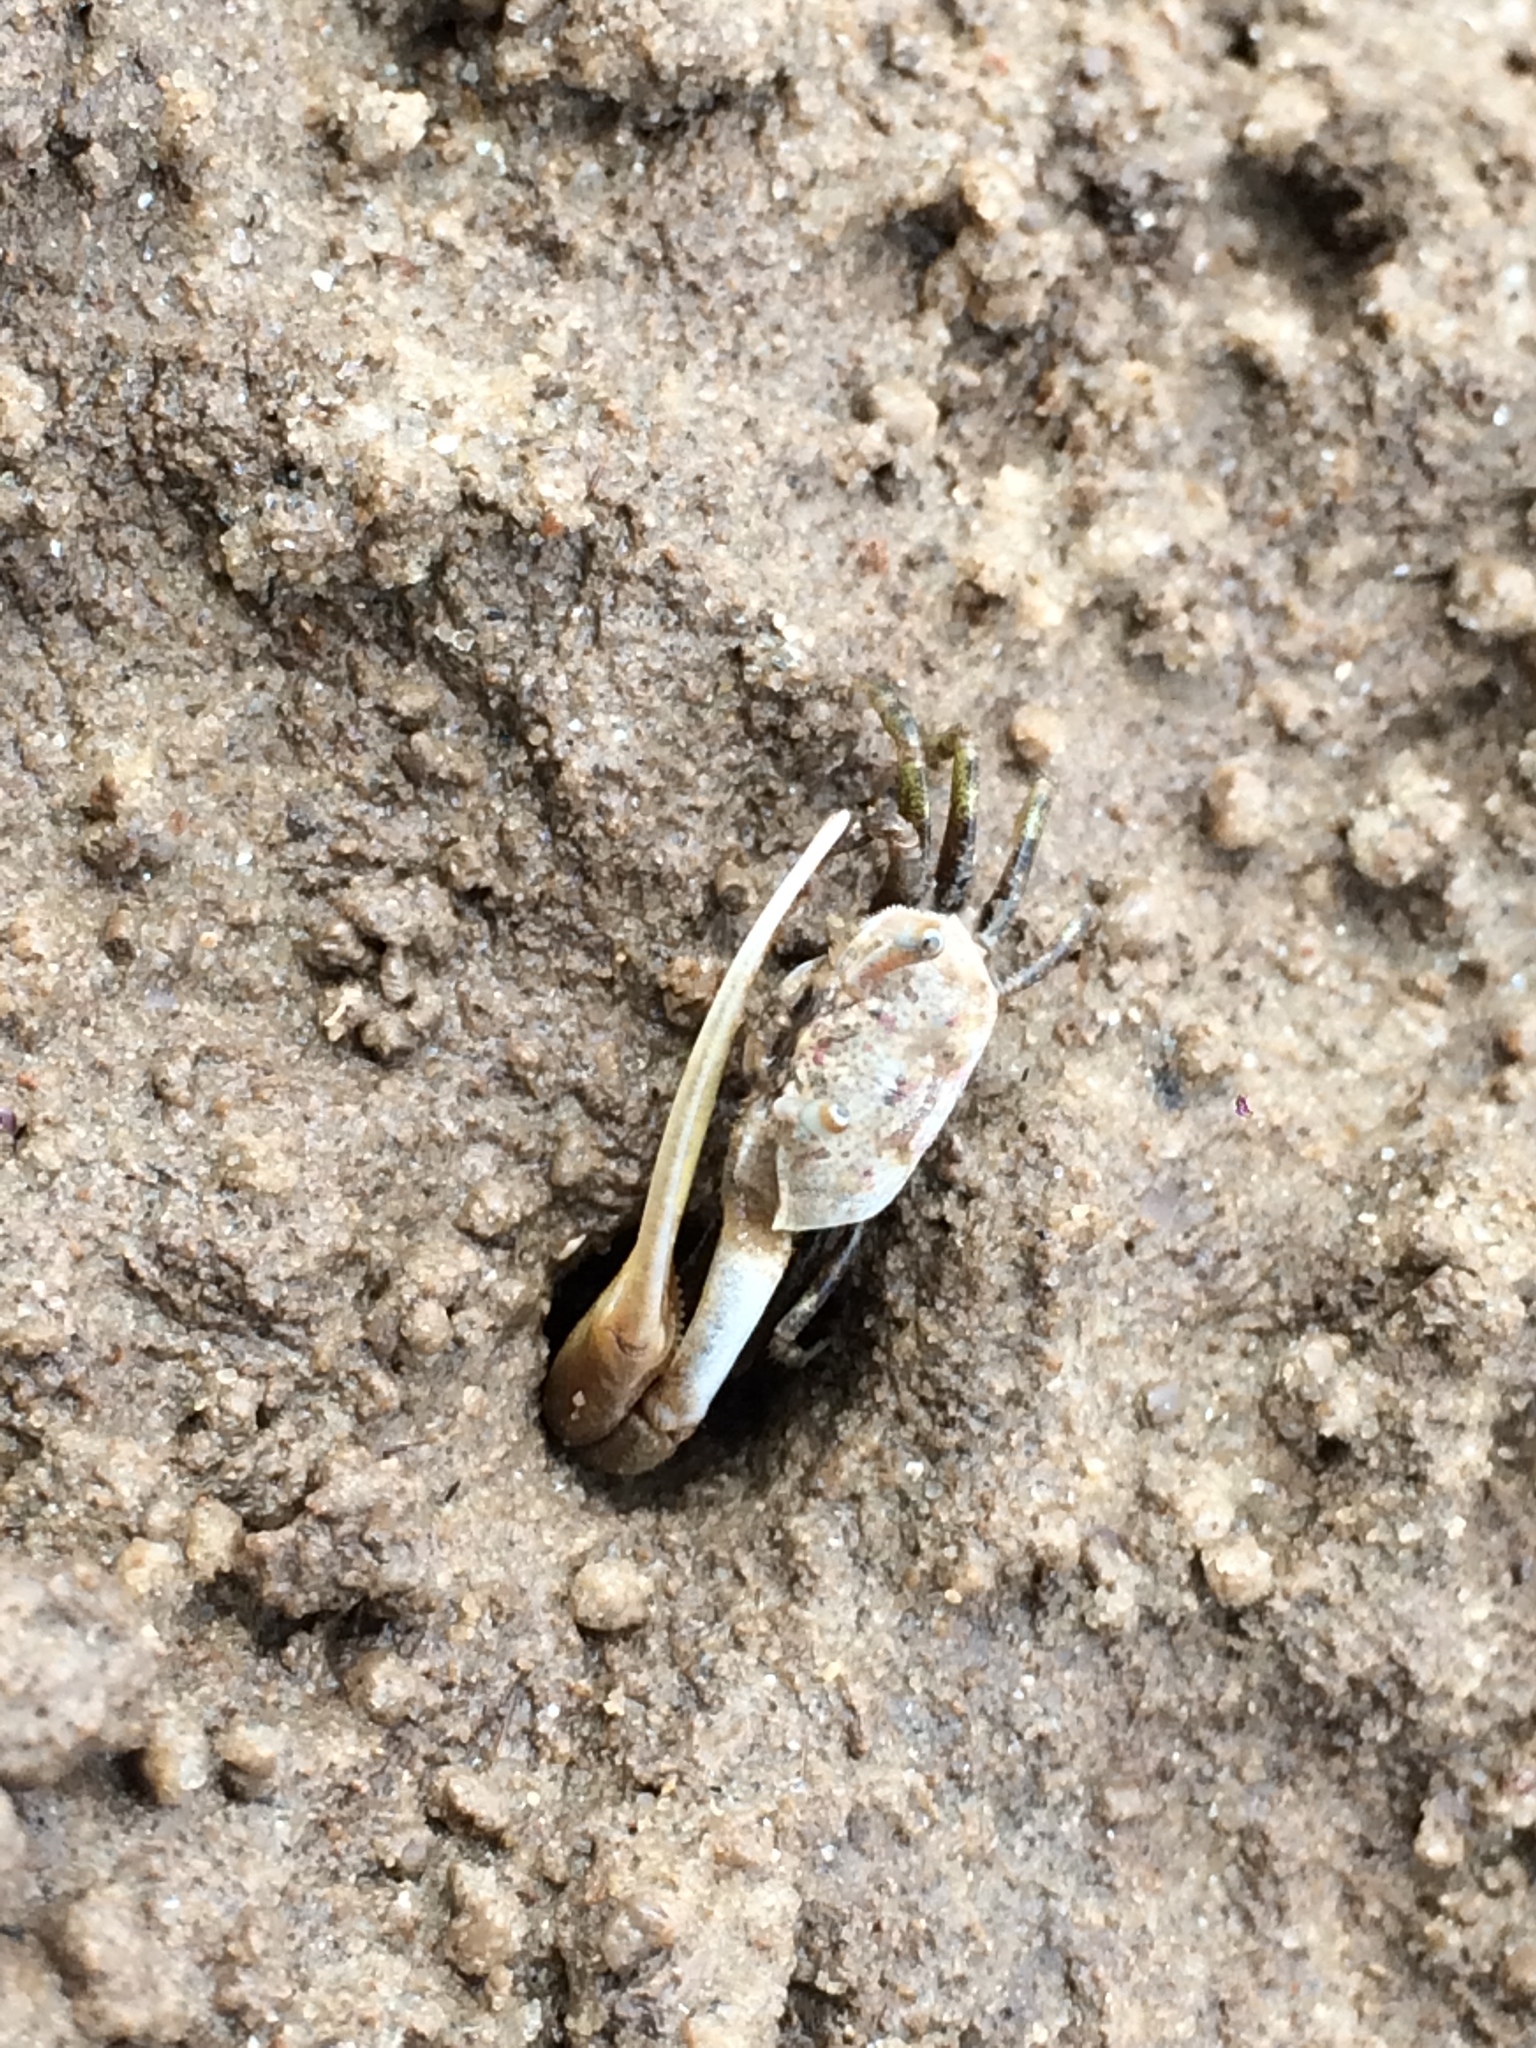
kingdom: Animalia
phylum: Arthropoda
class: Malacostraca
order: Decapoda
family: Ocypodidae
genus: Leptuca
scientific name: Leptuca leptodactyla
